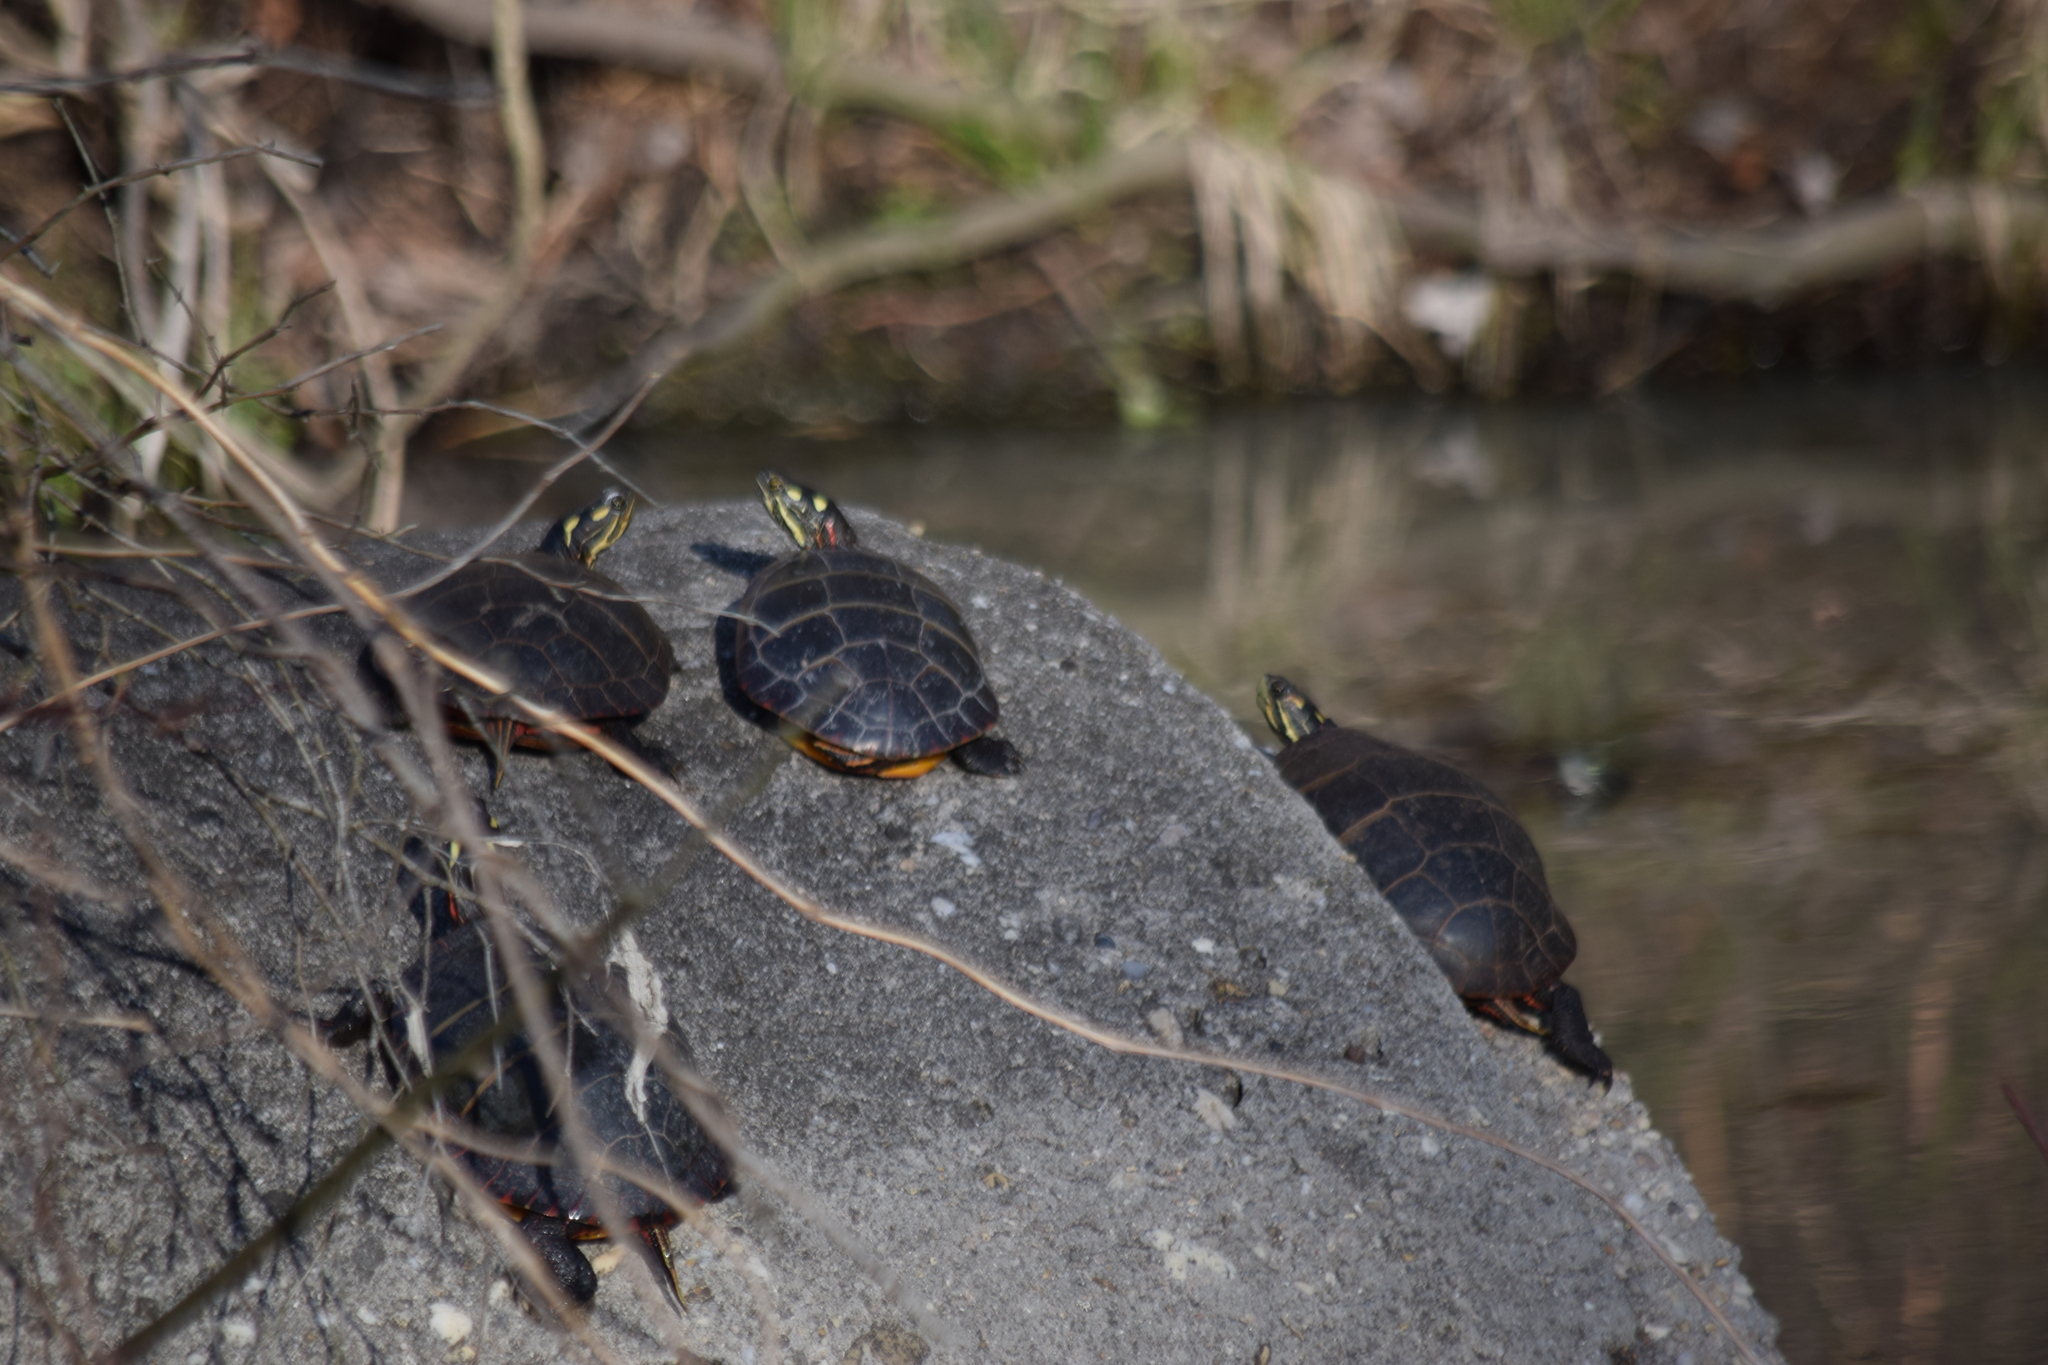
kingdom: Animalia
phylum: Chordata
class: Testudines
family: Emydidae
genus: Chrysemys
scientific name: Chrysemys picta
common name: Painted turtle
